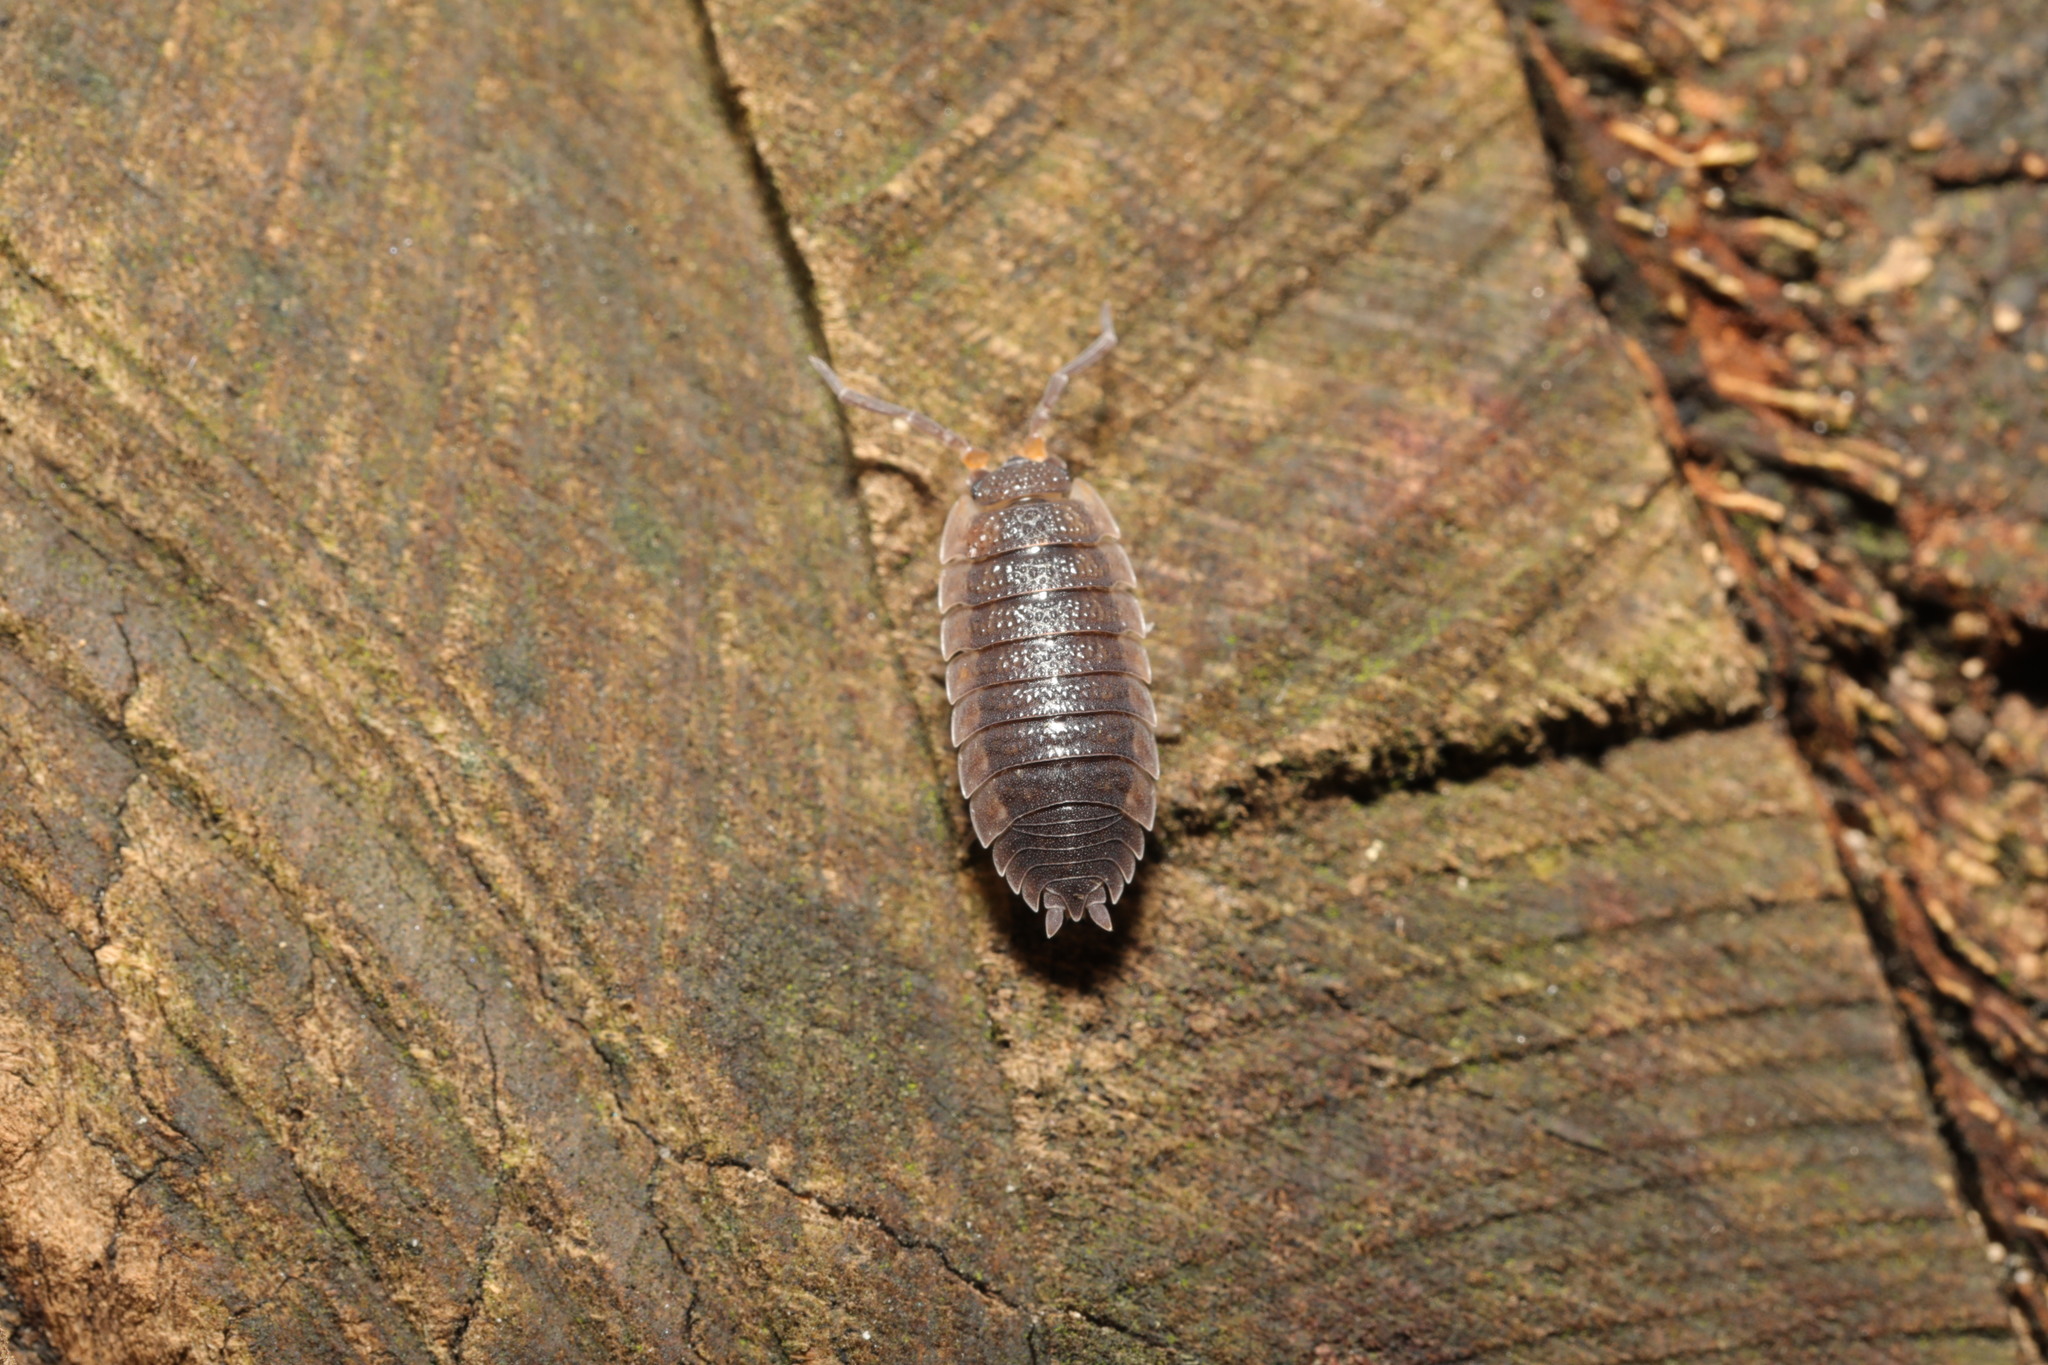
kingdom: Animalia
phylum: Arthropoda
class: Malacostraca
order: Isopoda
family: Porcellionidae
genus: Porcellio
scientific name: Porcellio scaber
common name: Common rough woodlouse
